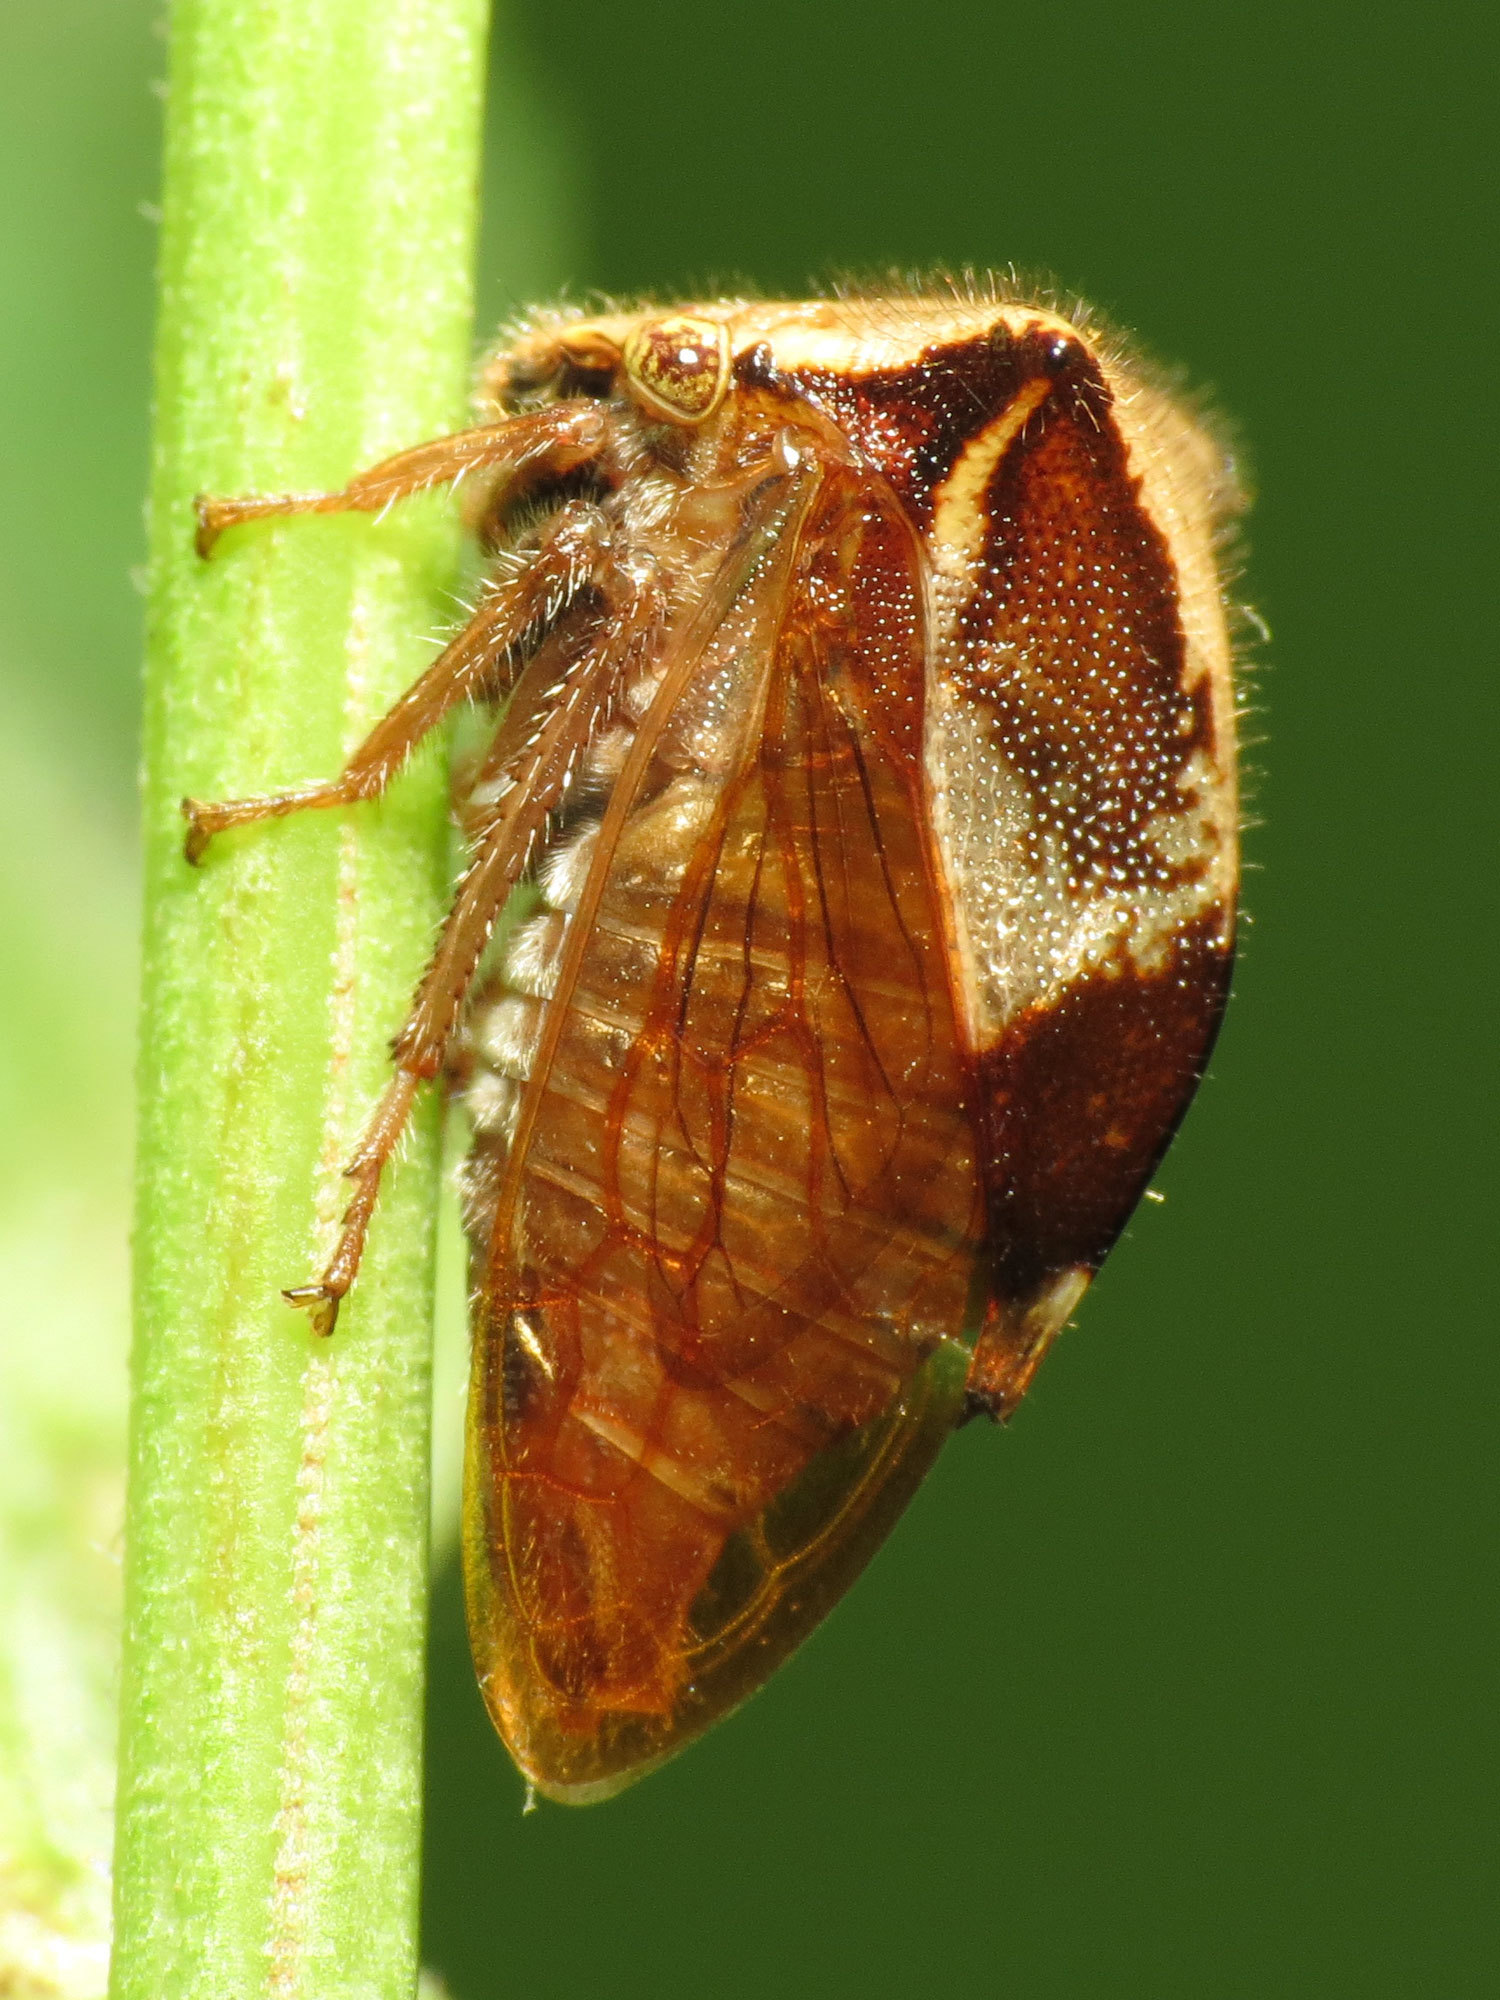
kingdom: Animalia
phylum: Arthropoda
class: Insecta
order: Hemiptera
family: Membracidae
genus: Stictocephala
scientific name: Stictocephala diceros
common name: Two-horned treehopper
